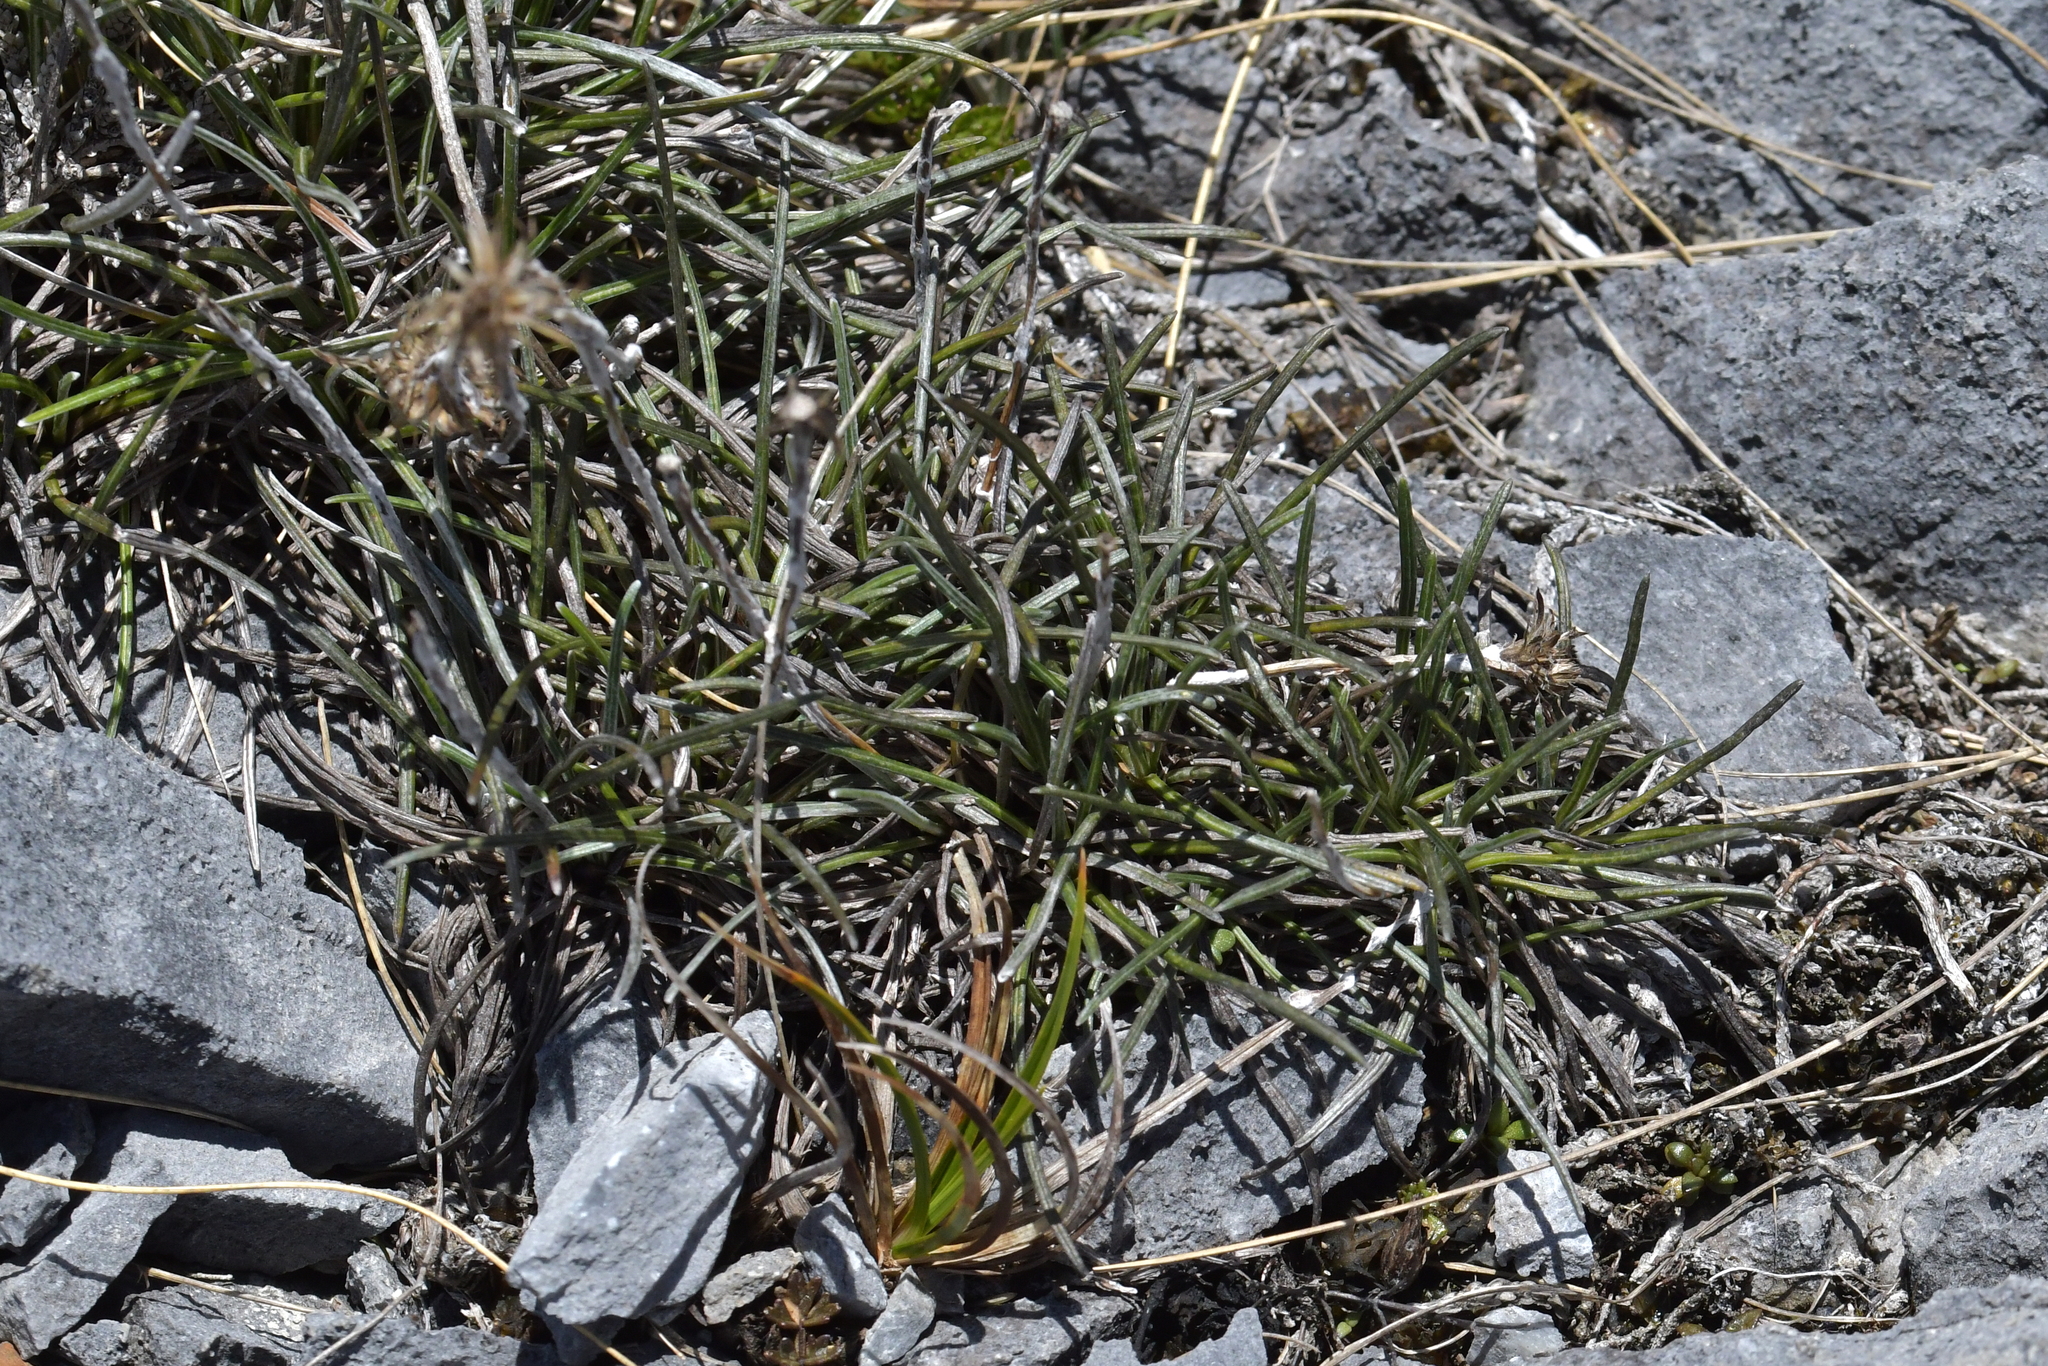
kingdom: Plantae
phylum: Tracheophyta
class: Magnoliopsida
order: Asterales
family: Asteraceae
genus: Celmisia
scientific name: Celmisia gracilenta
